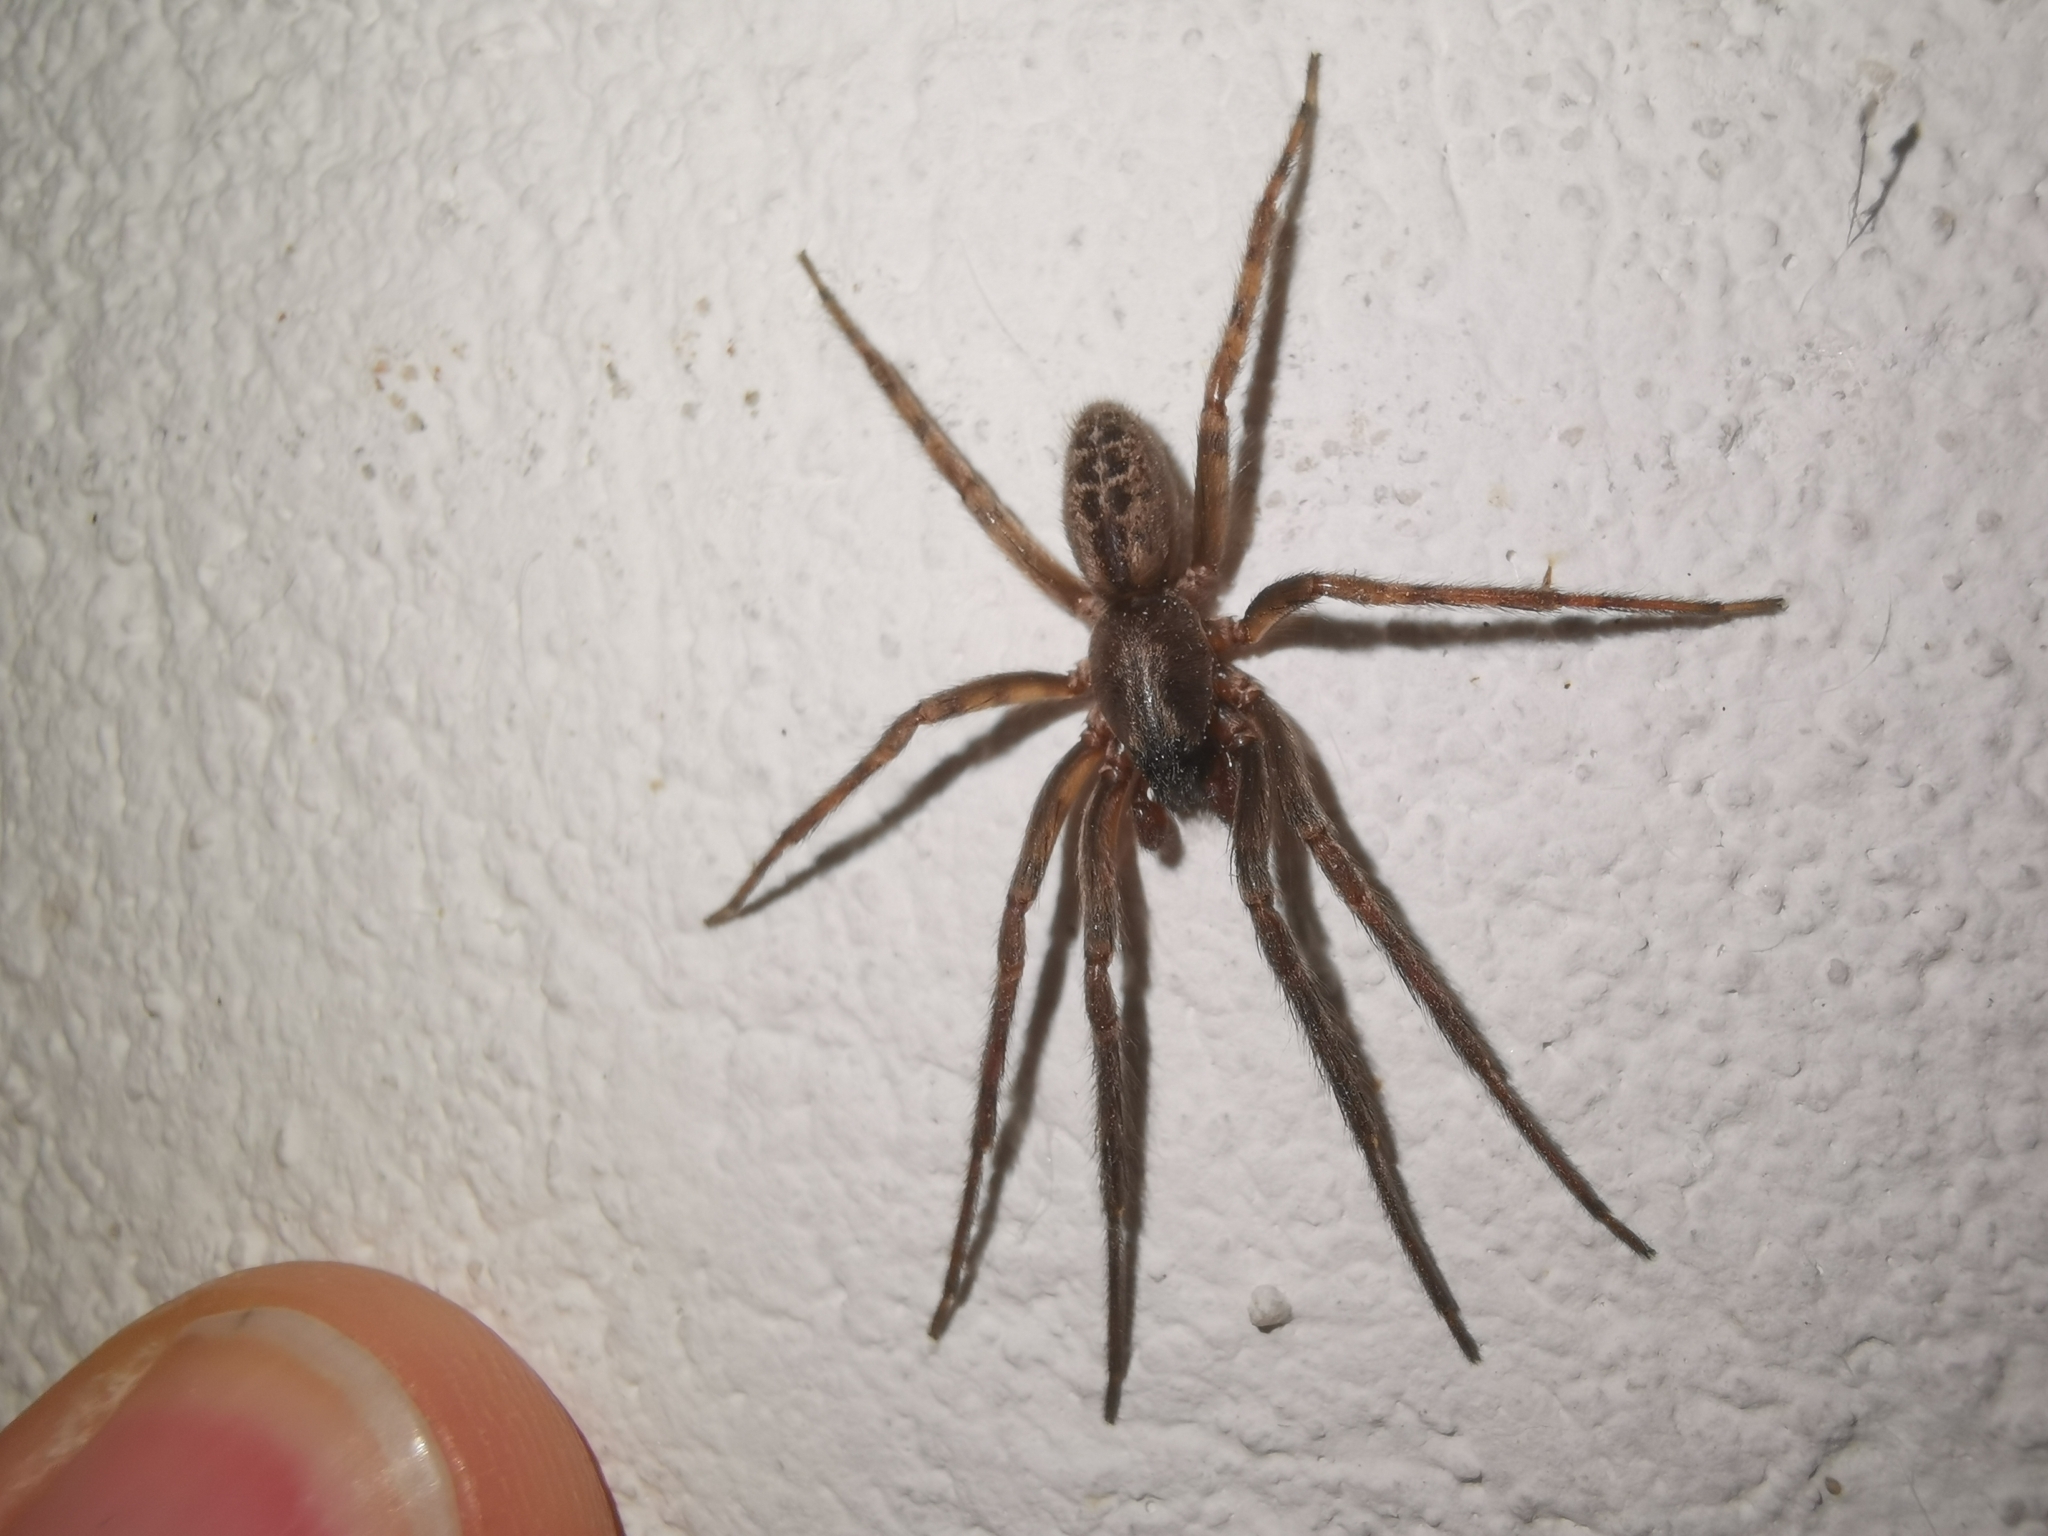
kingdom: Animalia
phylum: Arthropoda
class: Arachnida
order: Araneae
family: Segestriidae
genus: Segestria
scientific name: Segestria bavarica
